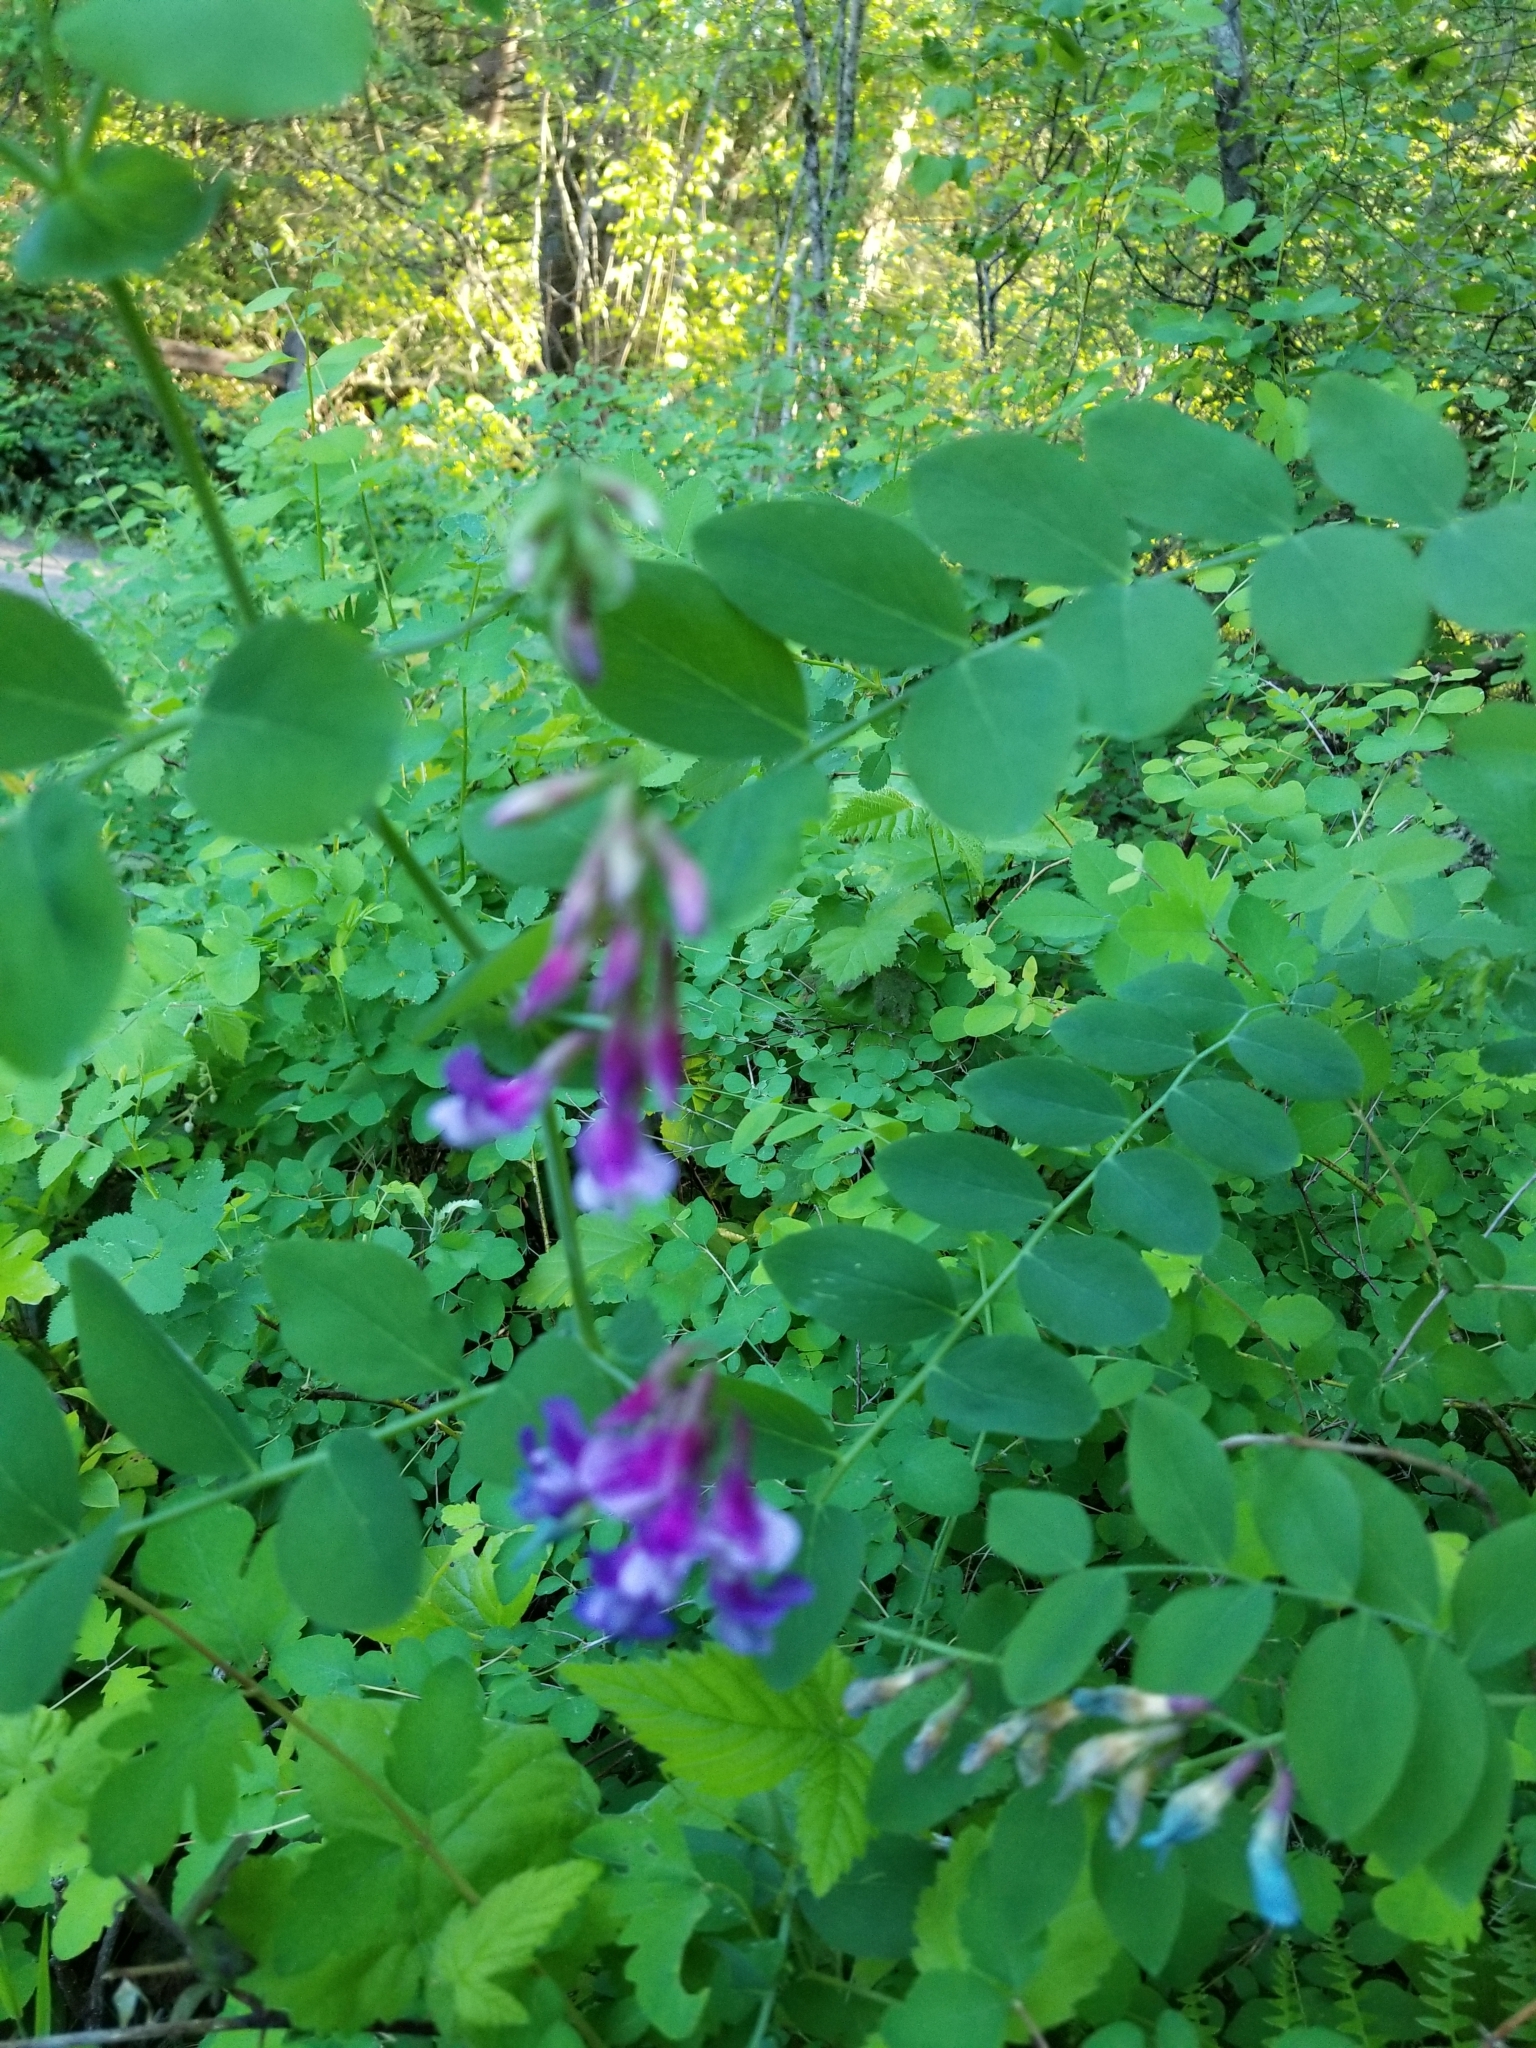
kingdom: Plantae
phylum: Tracheophyta
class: Magnoliopsida
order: Fabales
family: Fabaceae
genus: Lathyrus
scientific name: Lathyrus polyphyllus
